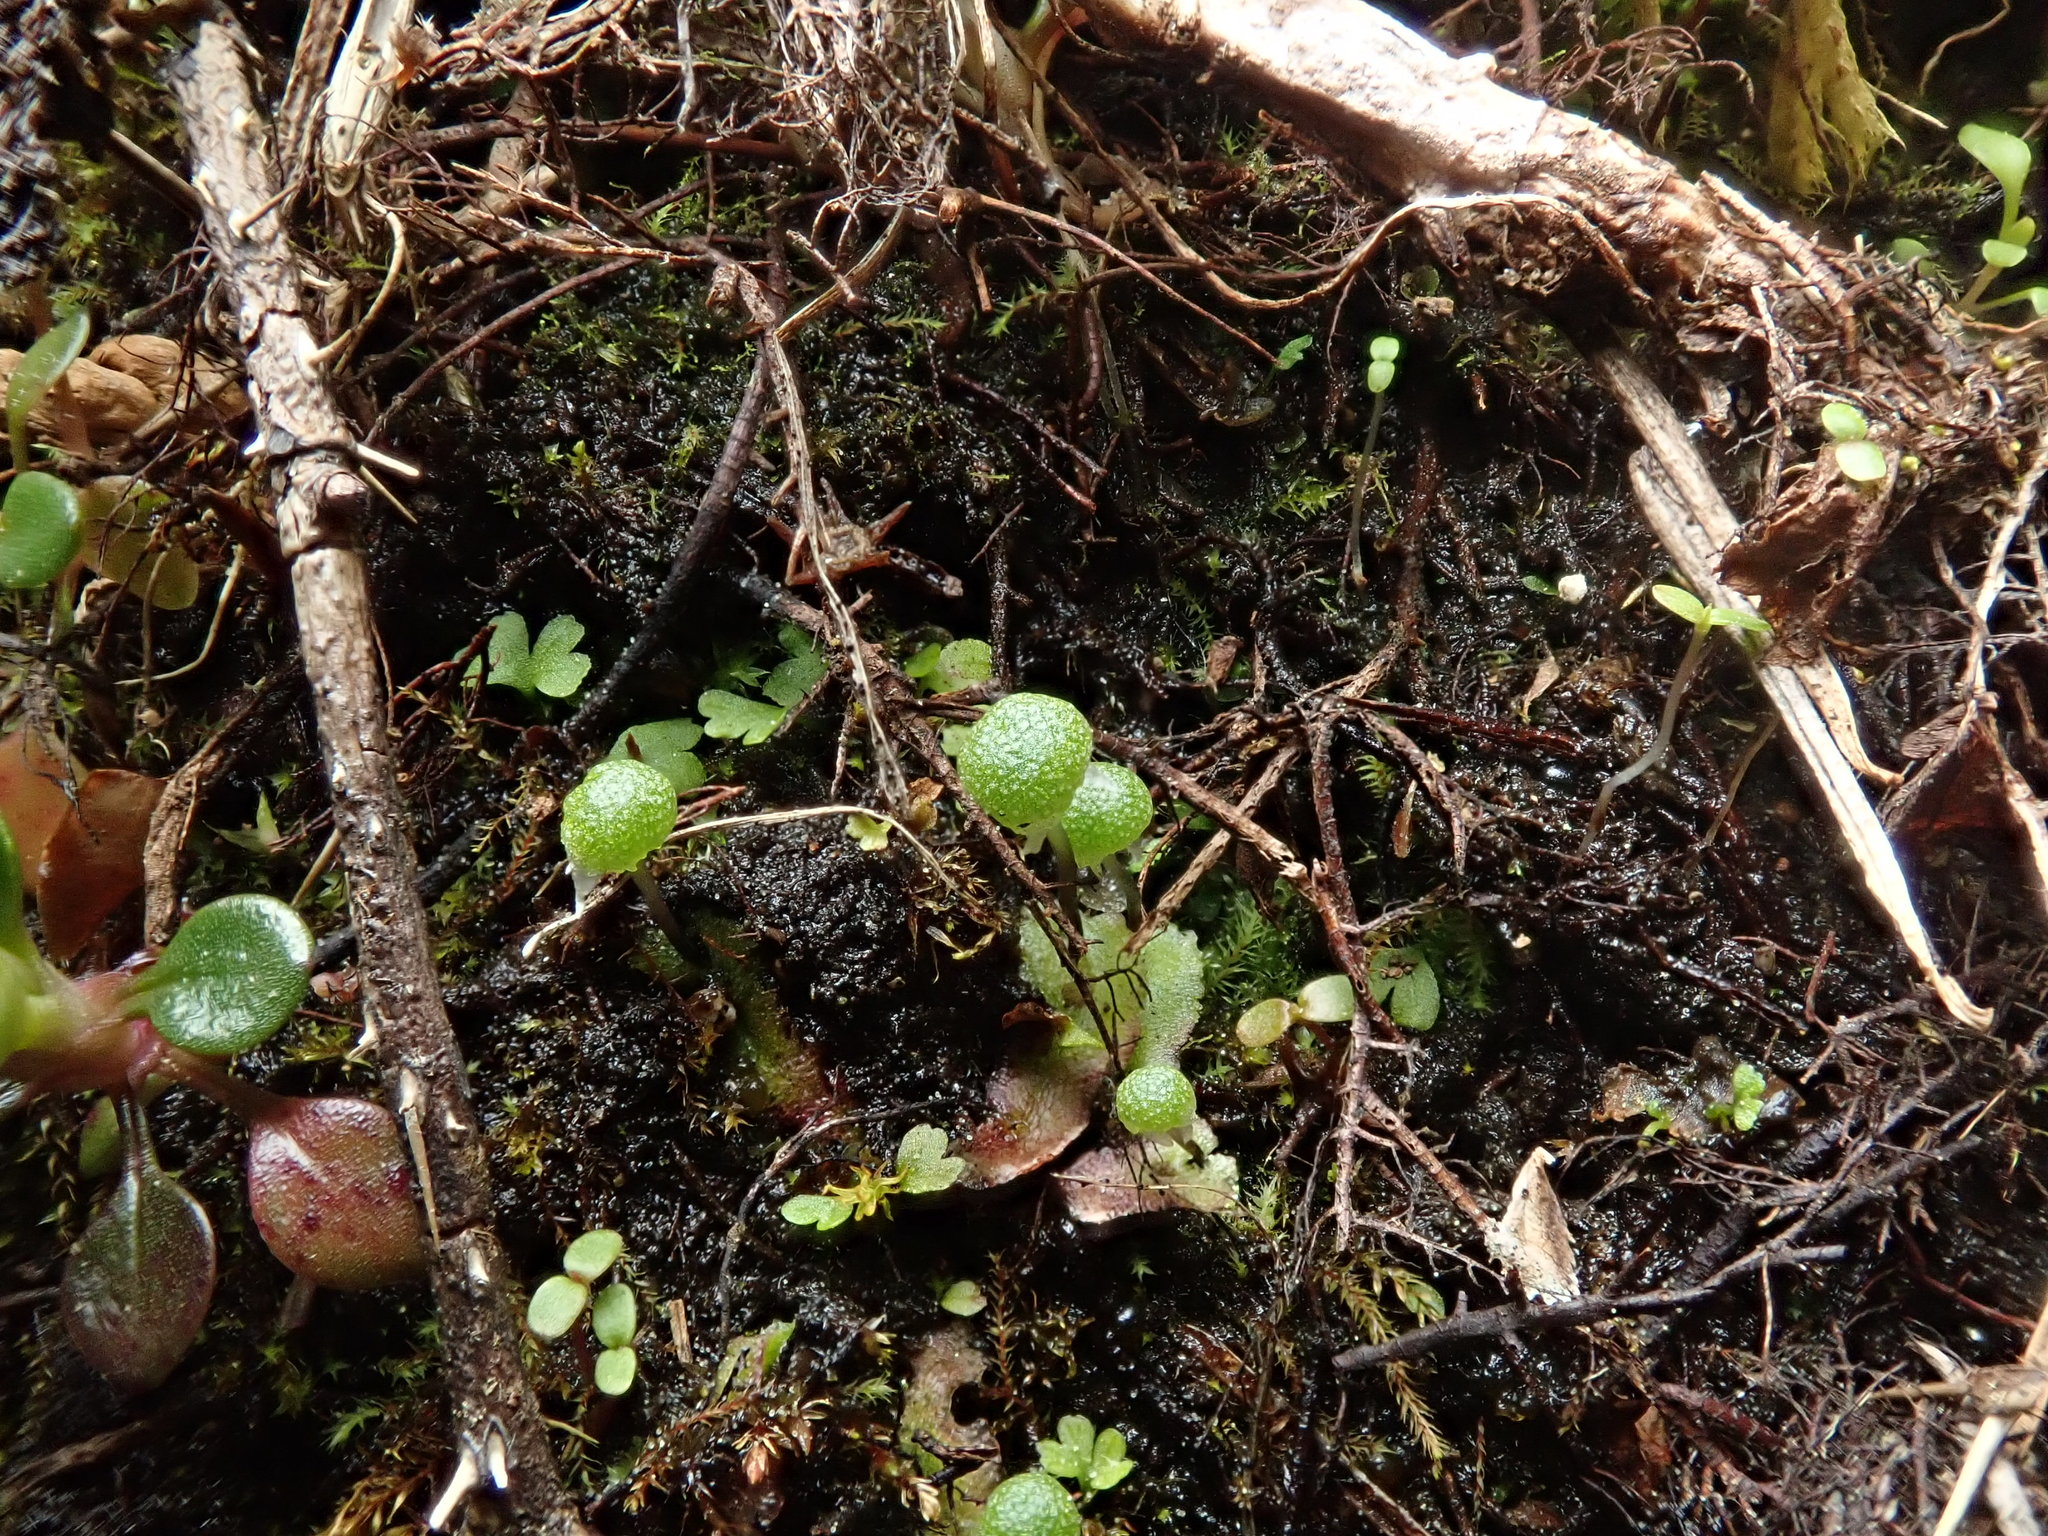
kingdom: Plantae
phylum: Marchantiophyta
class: Marchantiopsida
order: Marchantiales
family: Aytoniaceae
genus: Mannia
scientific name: Mannia gracilis
